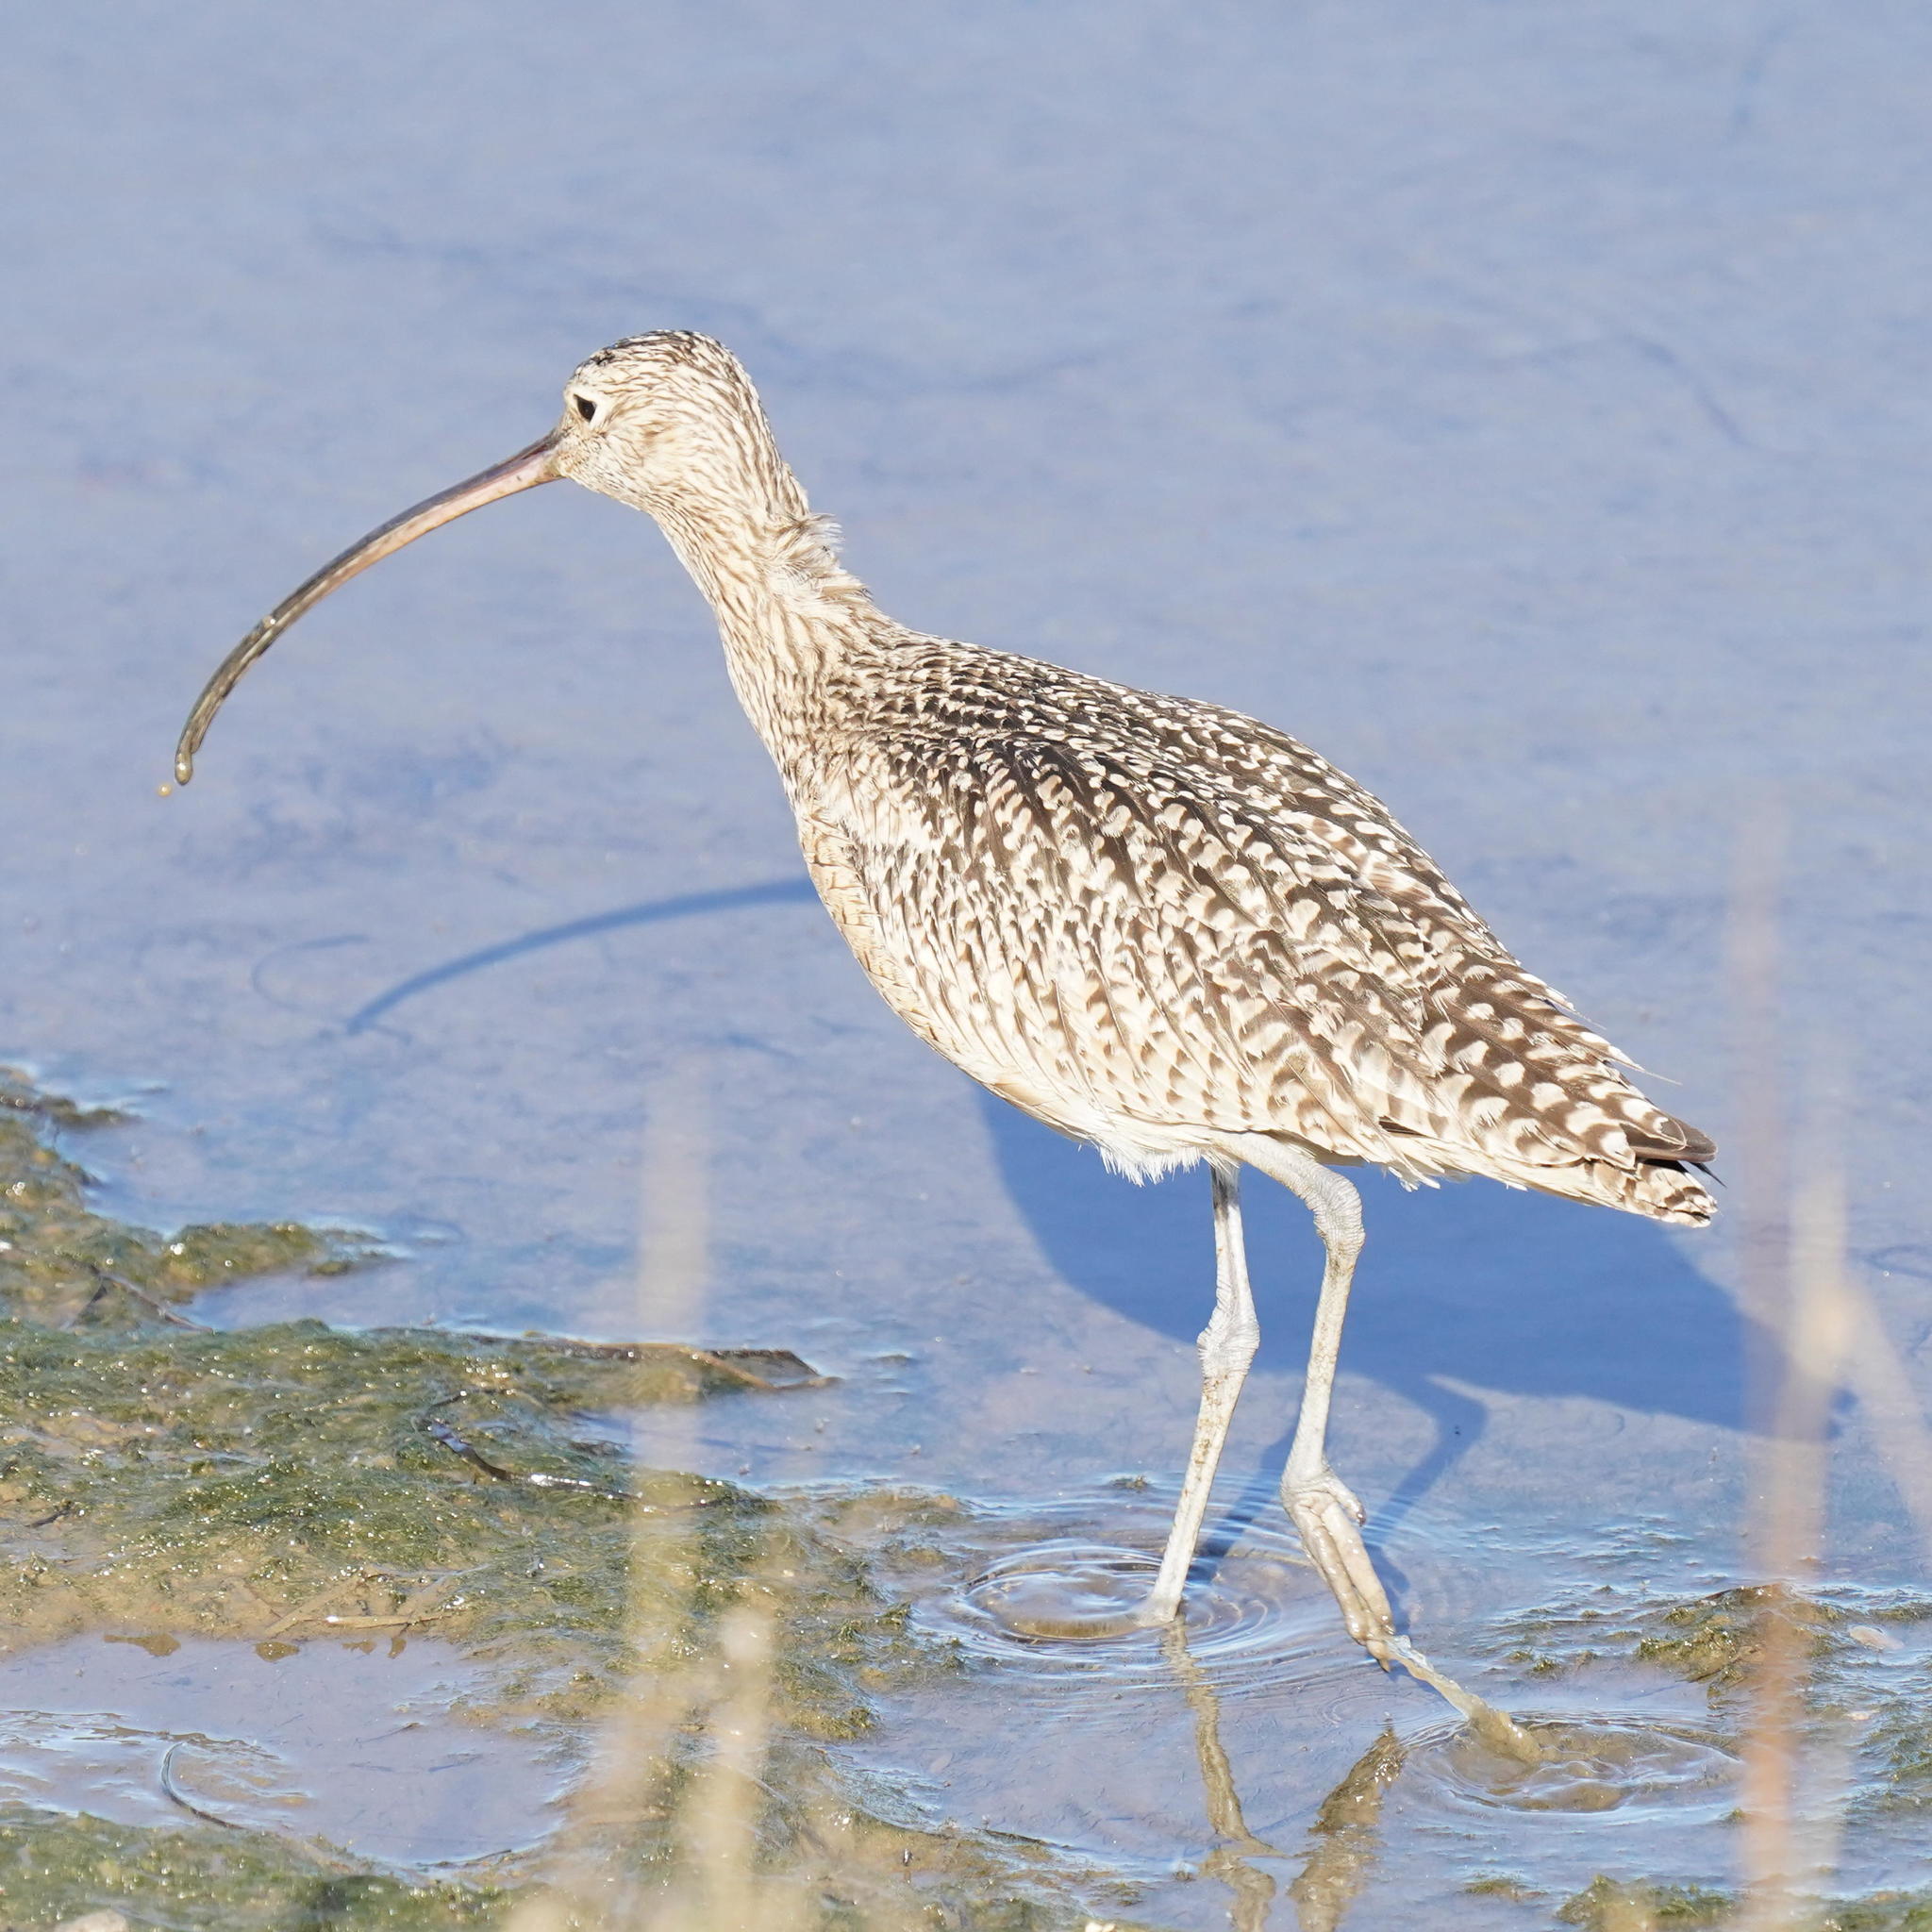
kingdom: Animalia
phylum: Chordata
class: Aves
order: Charadriiformes
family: Scolopacidae
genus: Numenius
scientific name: Numenius americanus
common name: Long-billed curlew
